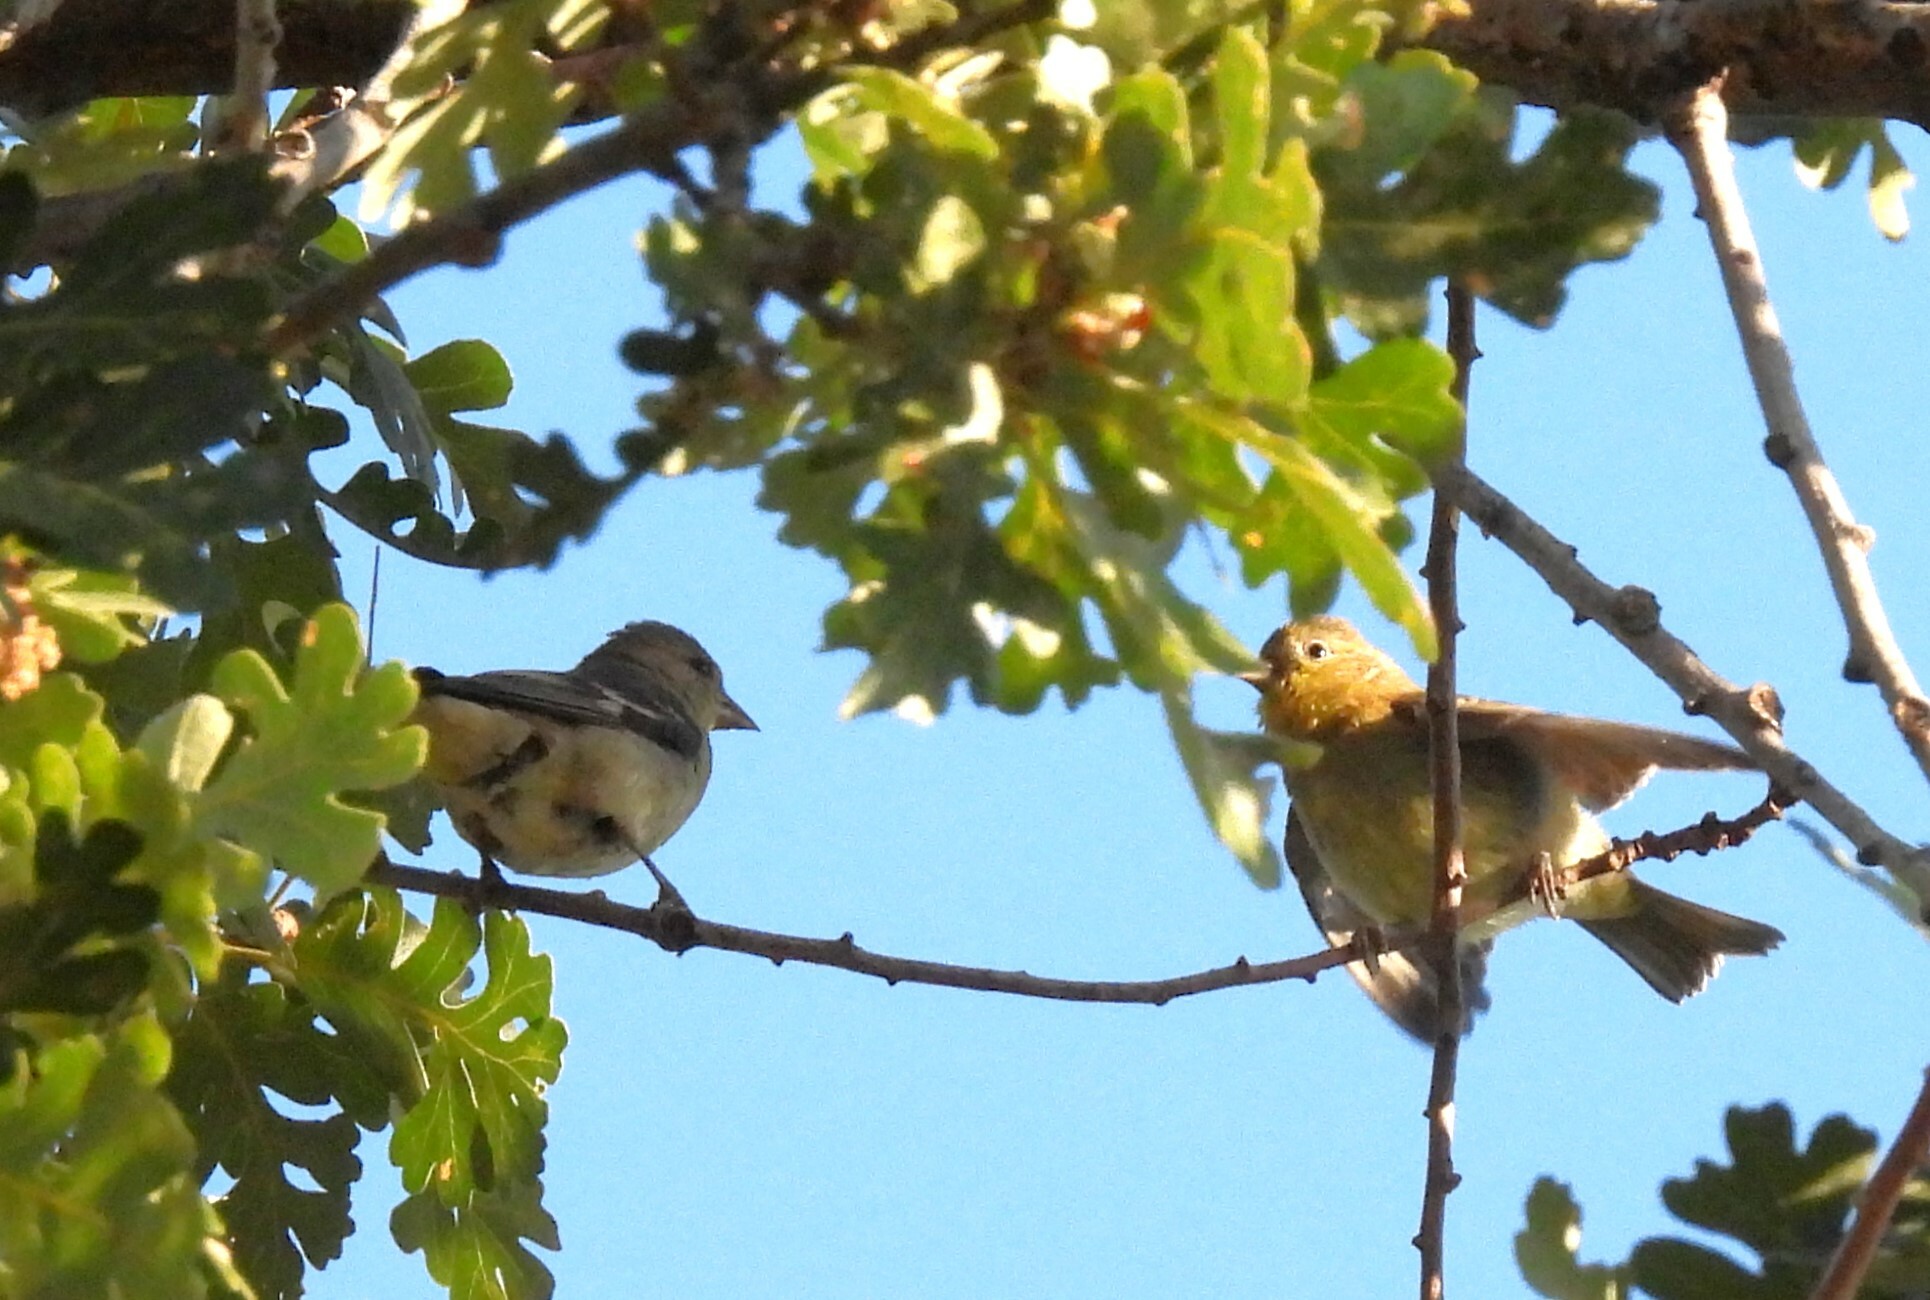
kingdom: Animalia
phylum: Chordata
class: Aves
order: Passeriformes
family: Fringillidae
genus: Spinus
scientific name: Spinus psaltria
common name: Lesser goldfinch
